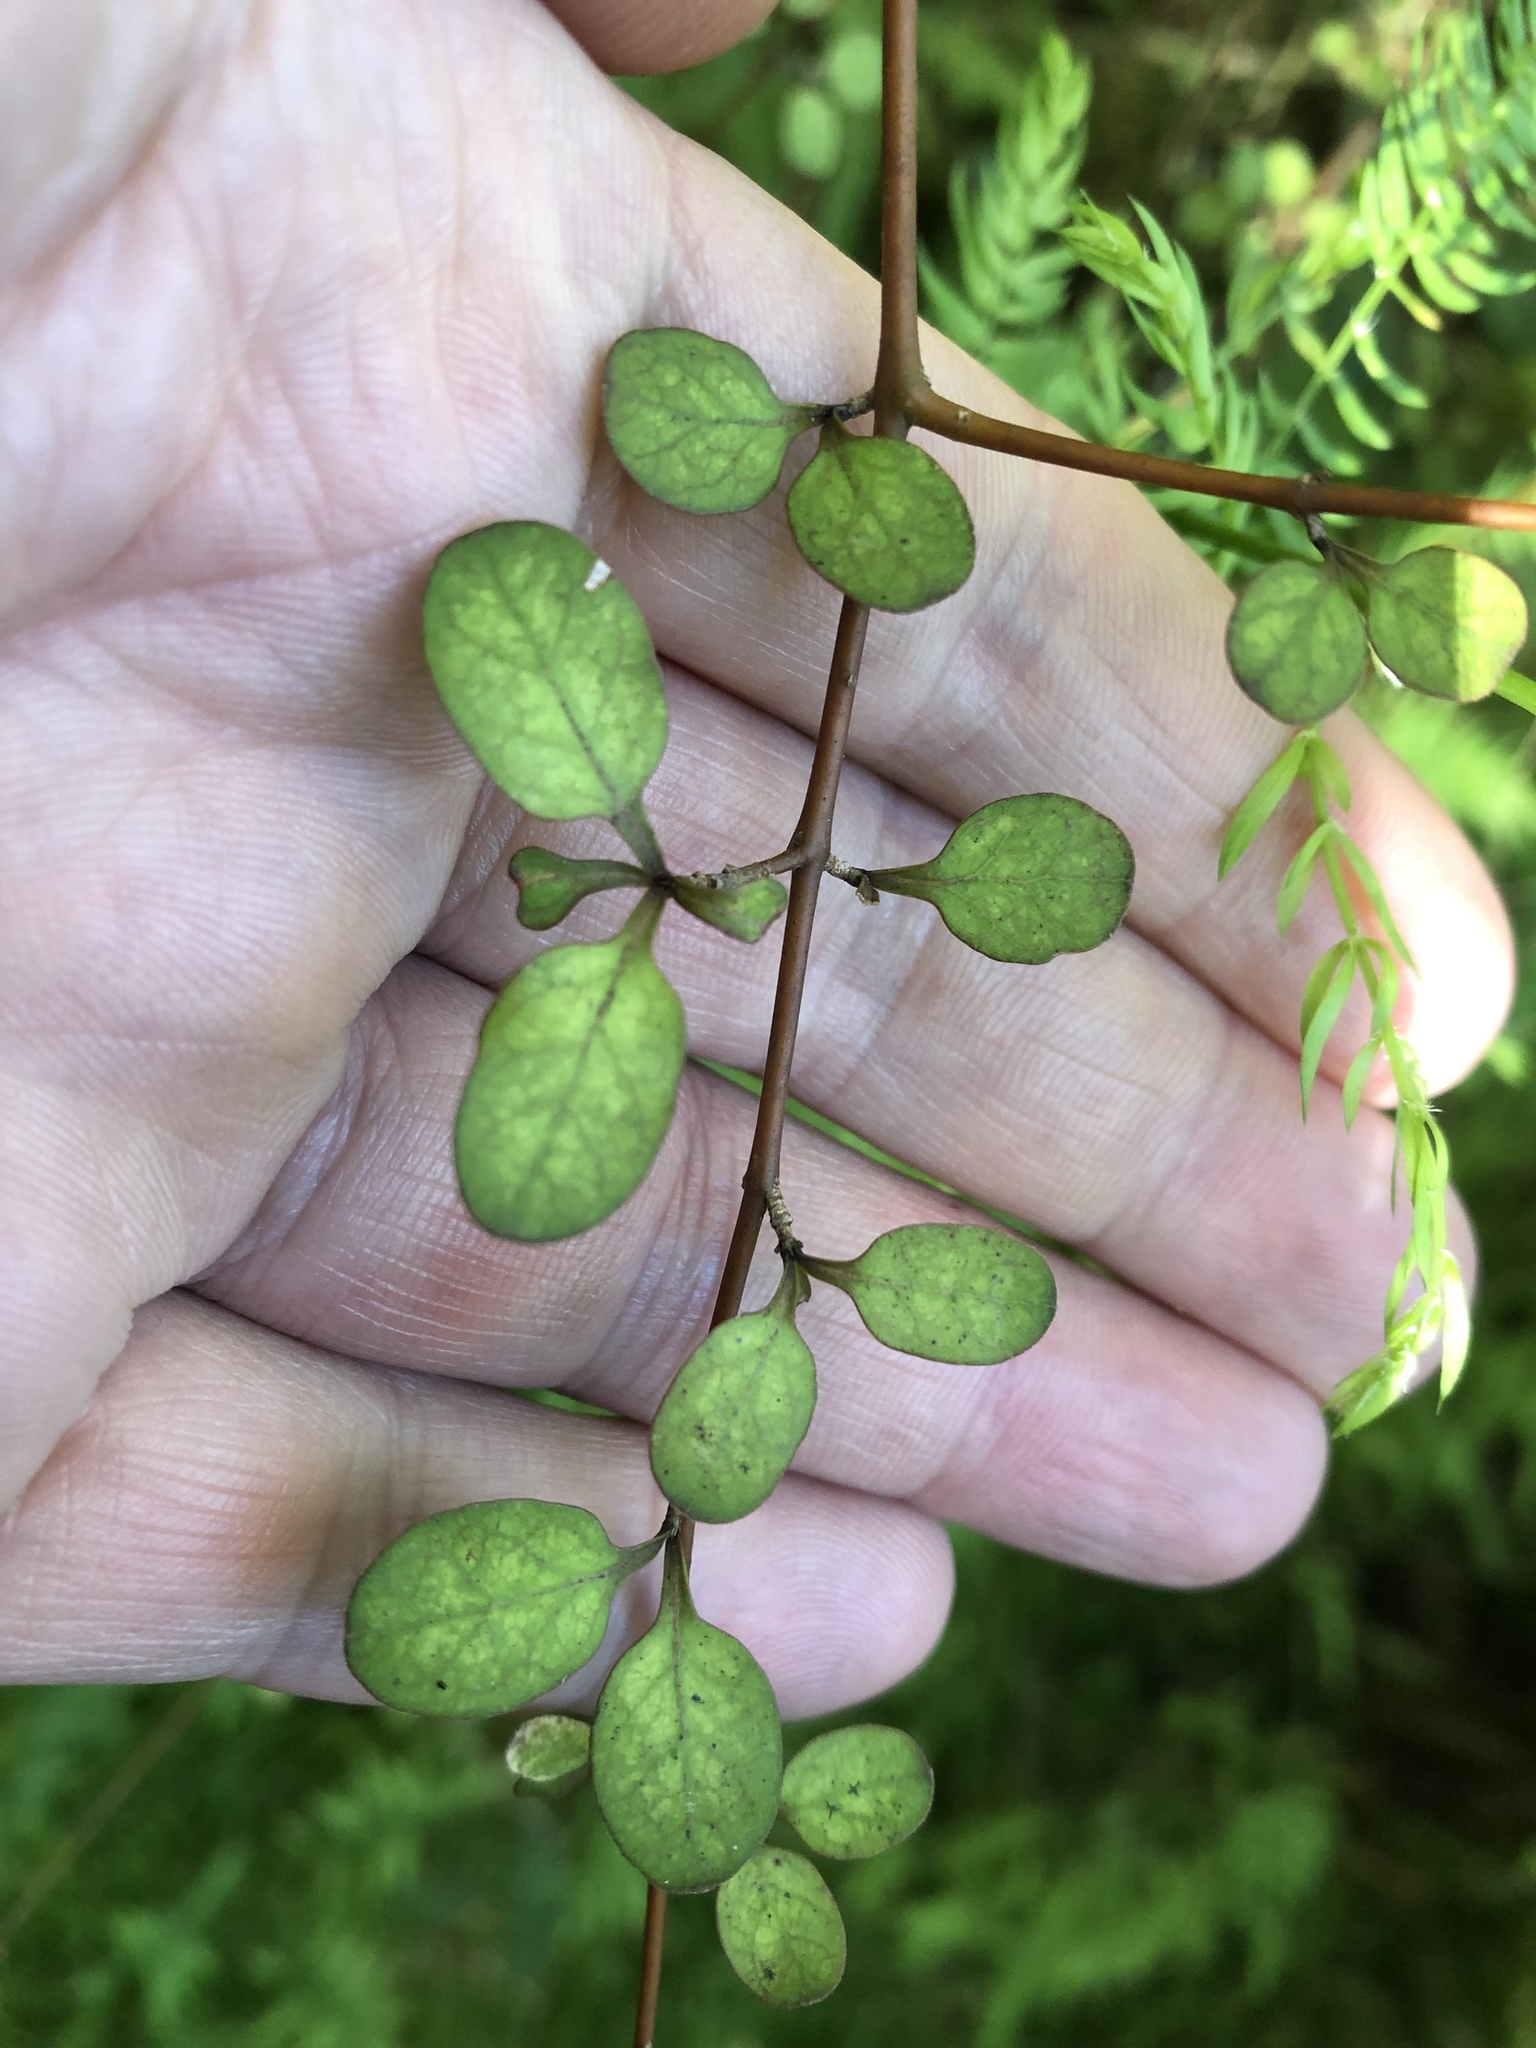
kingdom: Plantae
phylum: Tracheophyta
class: Magnoliopsida
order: Gentianales
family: Rubiaceae
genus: Coprosma
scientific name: Coprosma tenuicaulis
